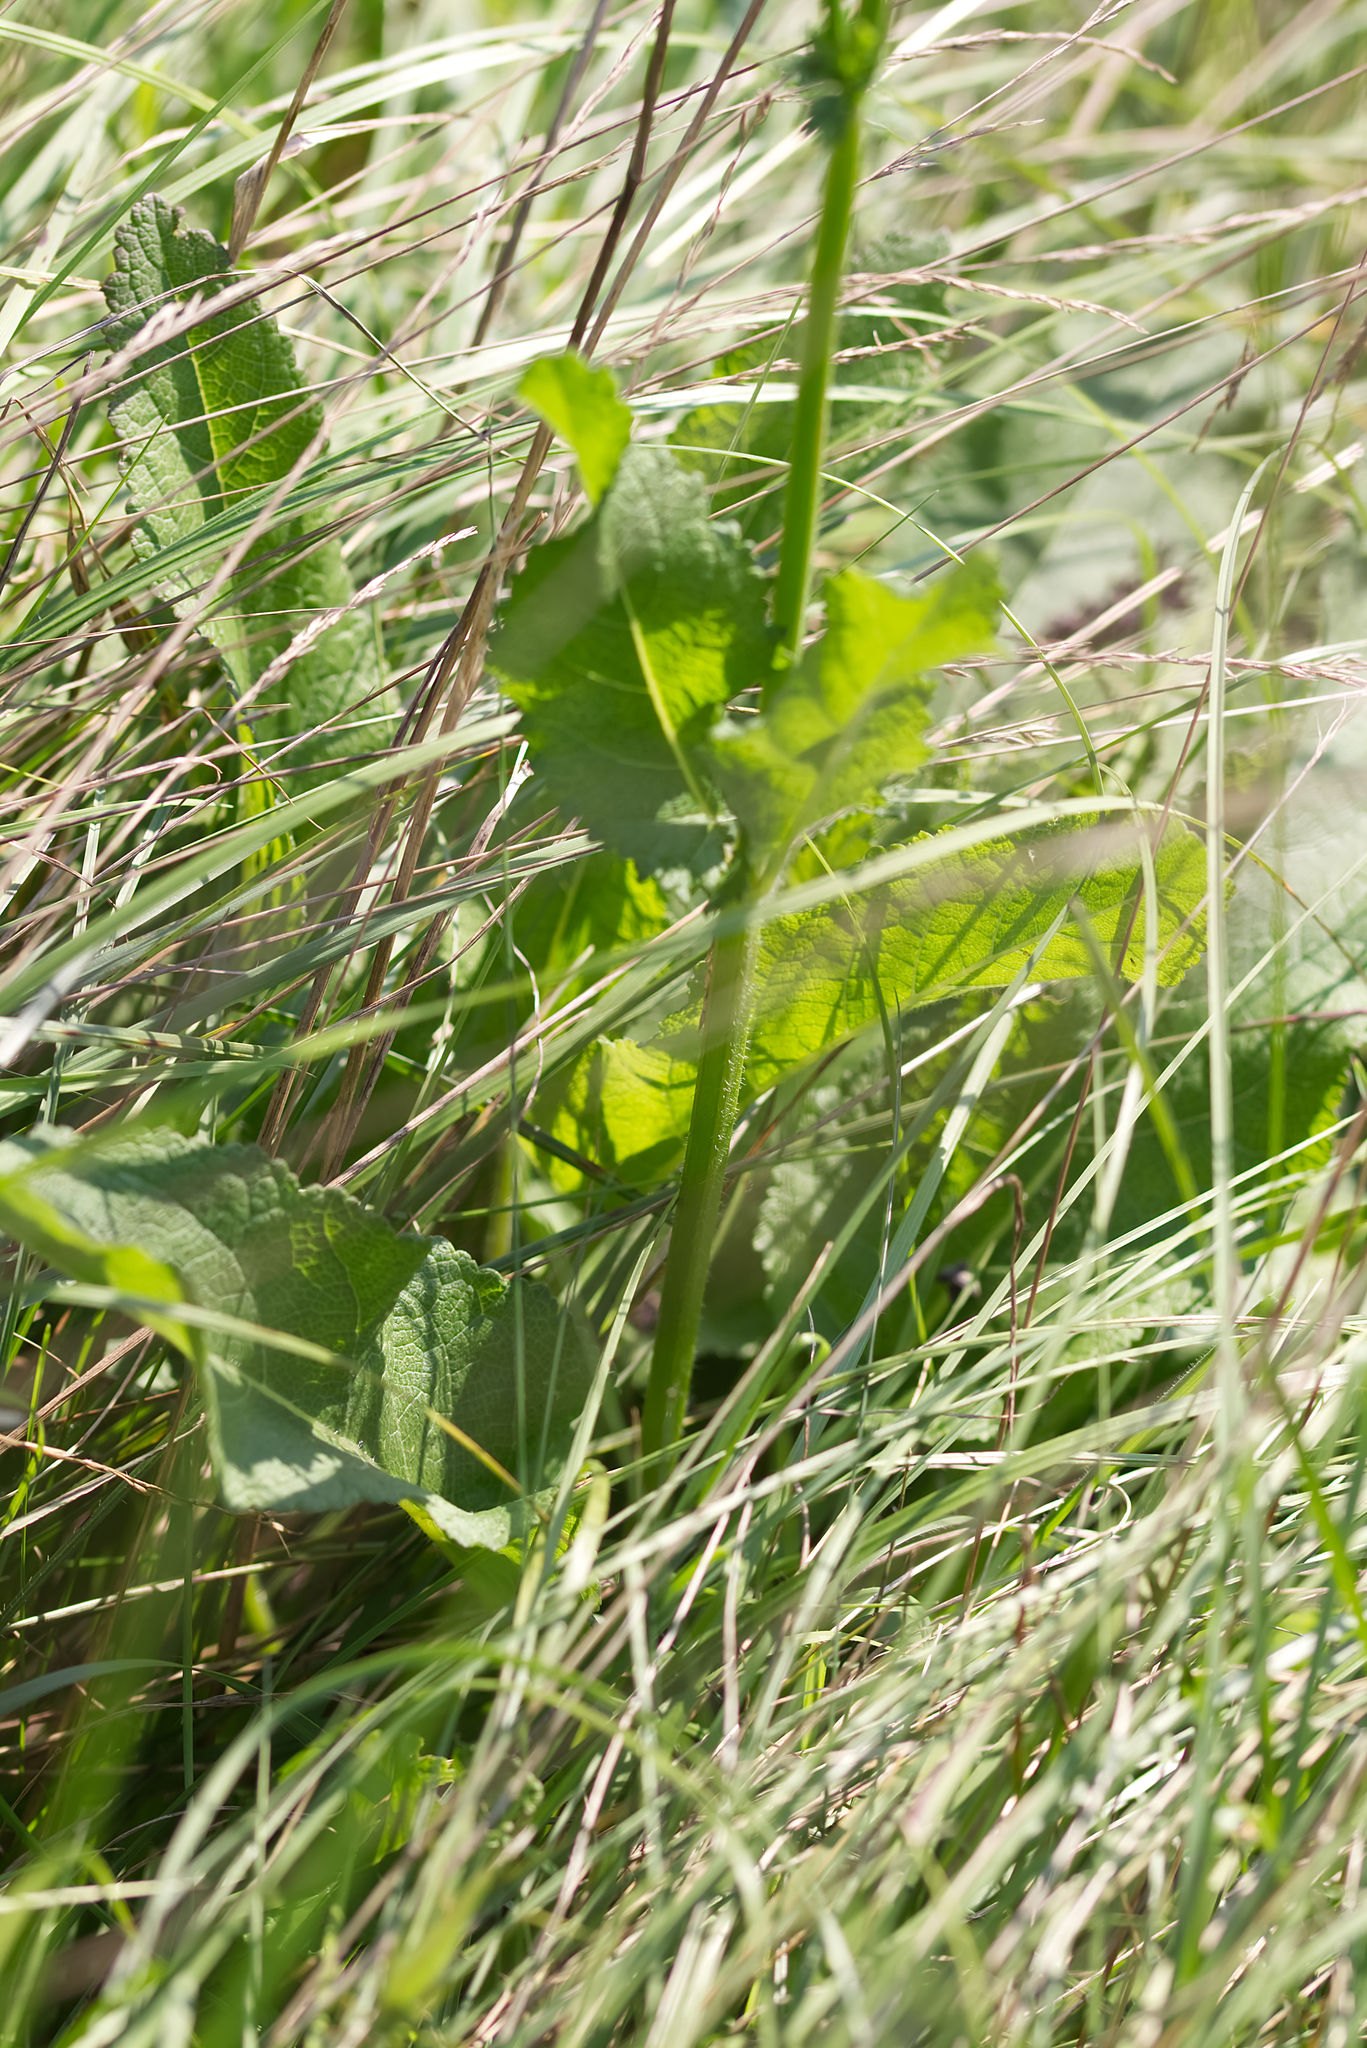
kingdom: Plantae
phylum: Tracheophyta
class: Magnoliopsida
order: Lamiales
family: Lamiaceae
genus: Salvia
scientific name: Salvia pratensis
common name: Meadow sage
